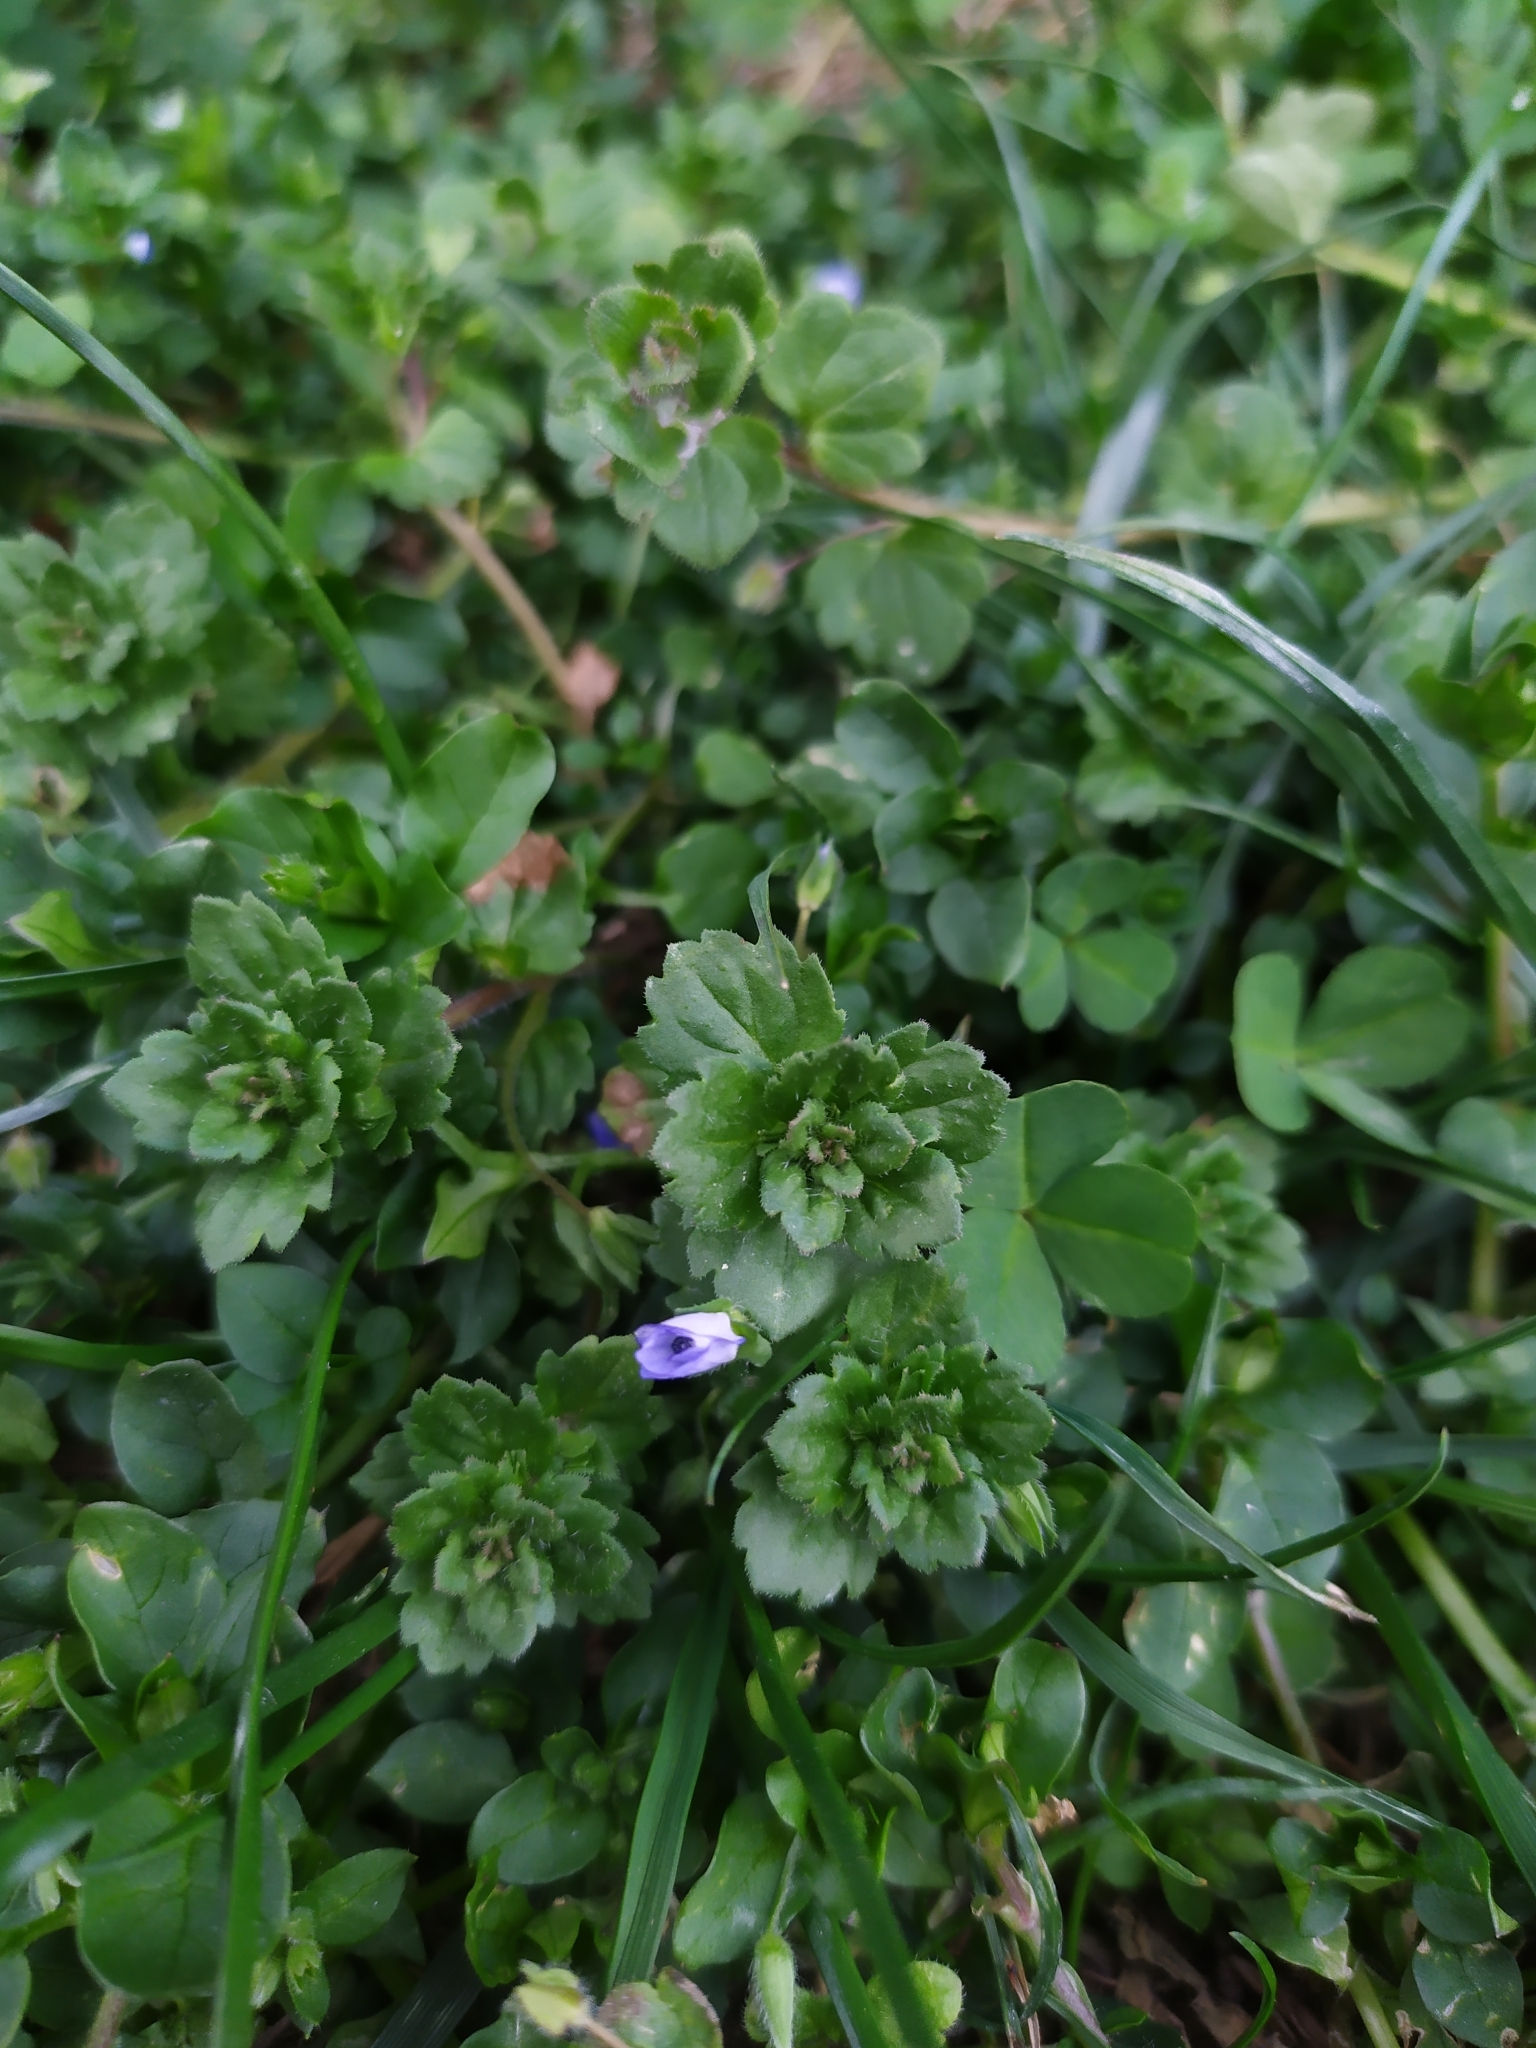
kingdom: Plantae
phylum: Tracheophyta
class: Magnoliopsida
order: Lamiales
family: Plantaginaceae
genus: Veronica
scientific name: Veronica persica
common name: Common field-speedwell
